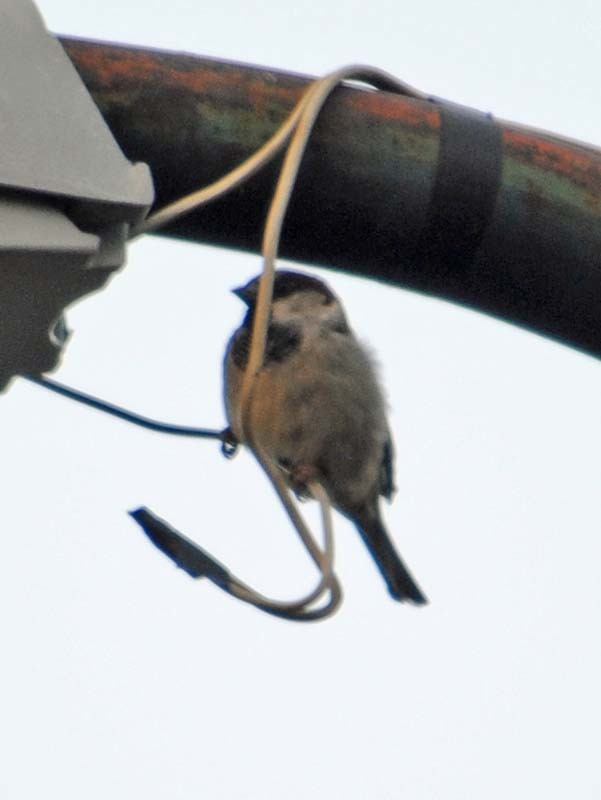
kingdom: Animalia
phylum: Chordata
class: Aves
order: Passeriformes
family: Passeridae
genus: Passer
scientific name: Passer domesticus
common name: House sparrow
